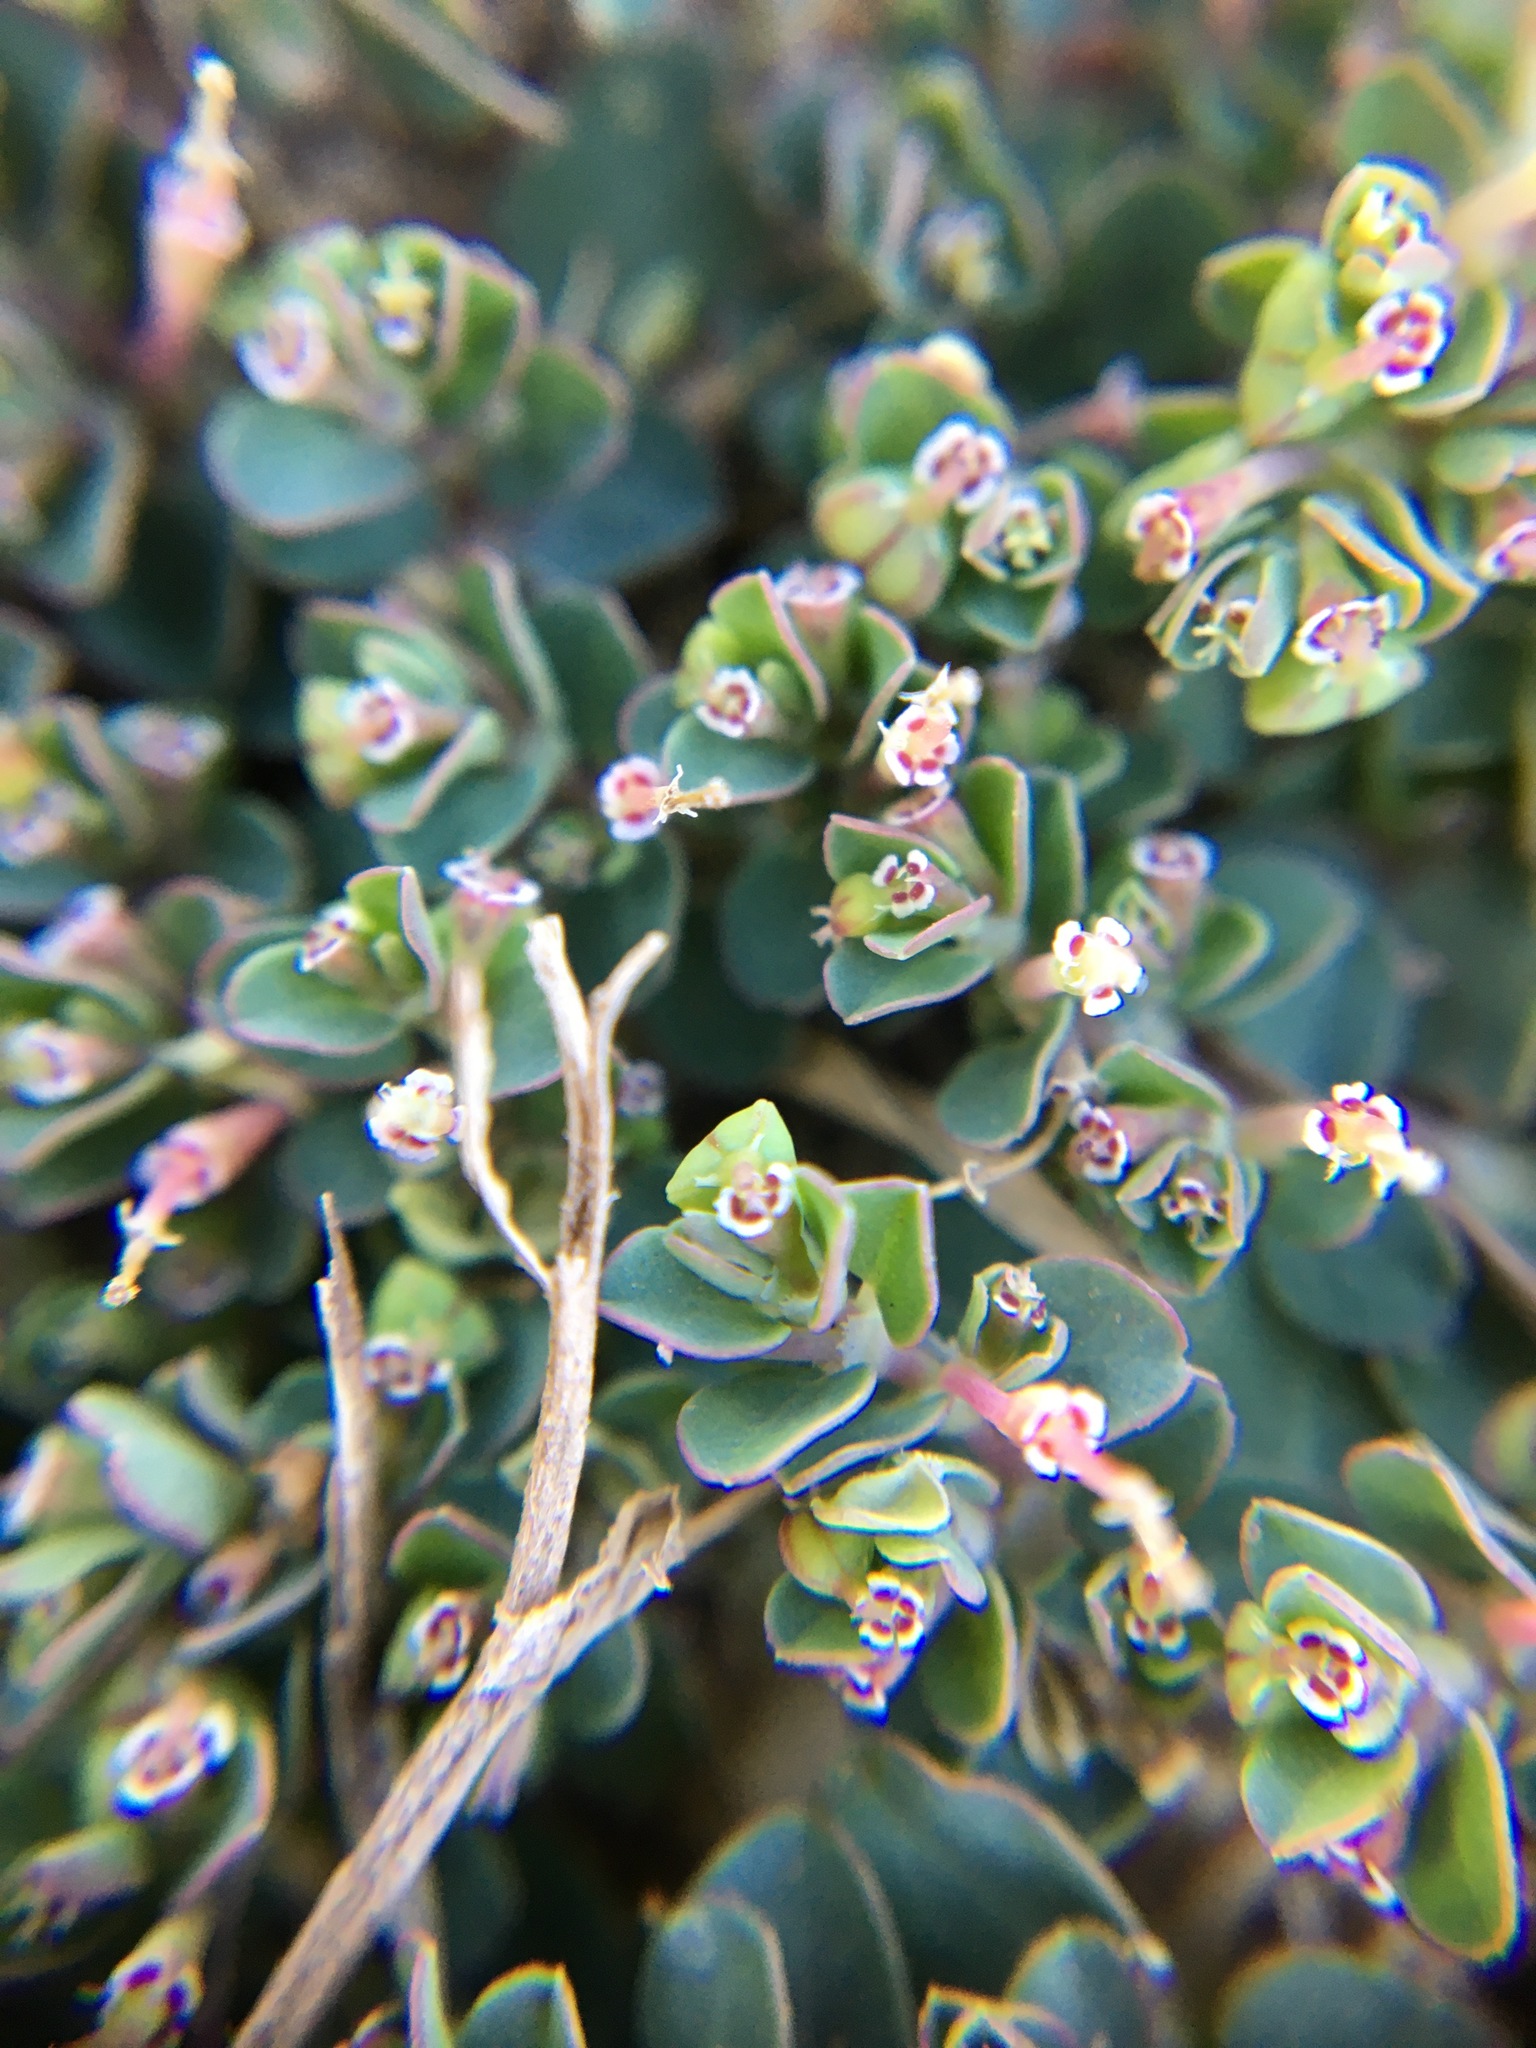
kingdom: Plantae
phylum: Tracheophyta
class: Magnoliopsida
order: Malpighiales
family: Euphorbiaceae
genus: Euphorbia
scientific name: Euphorbia serpens
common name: Matted sandmat
